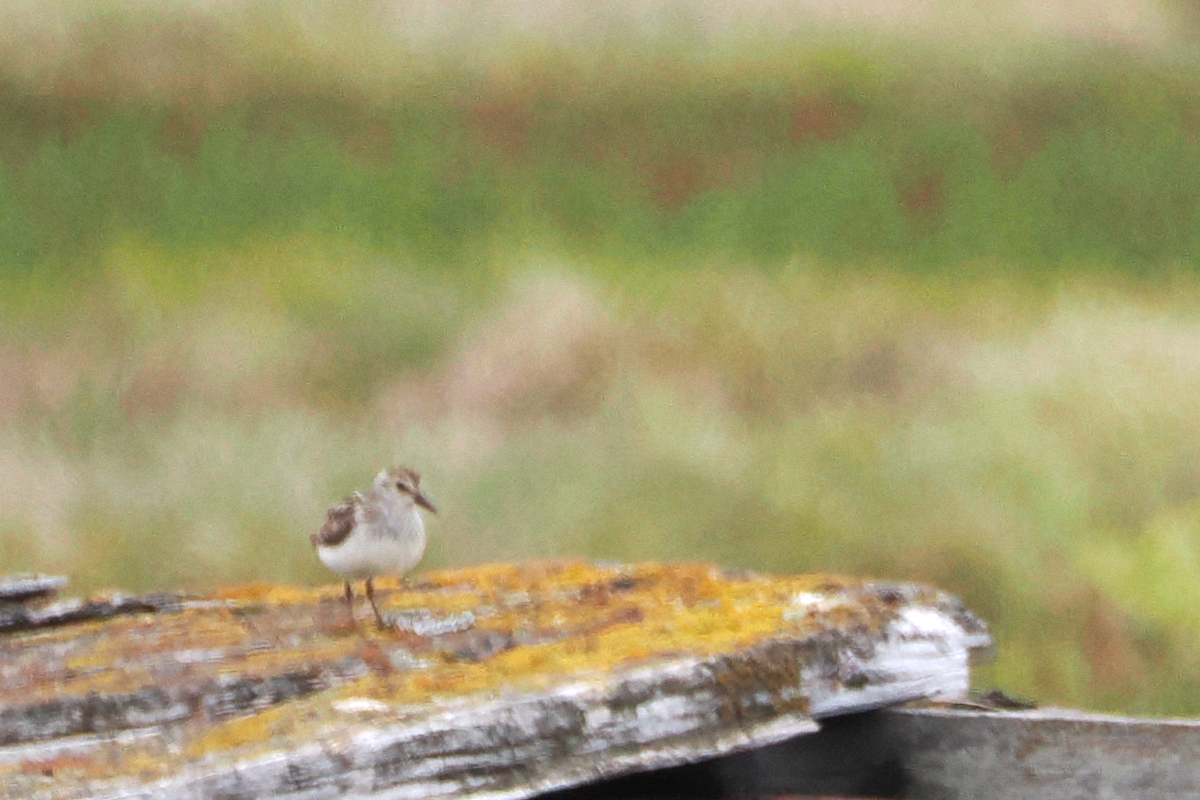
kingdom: Animalia
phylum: Chordata
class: Aves
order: Charadriiformes
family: Scolopacidae
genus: Calidris
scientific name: Calidris pusilla
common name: Semipalmated sandpiper
